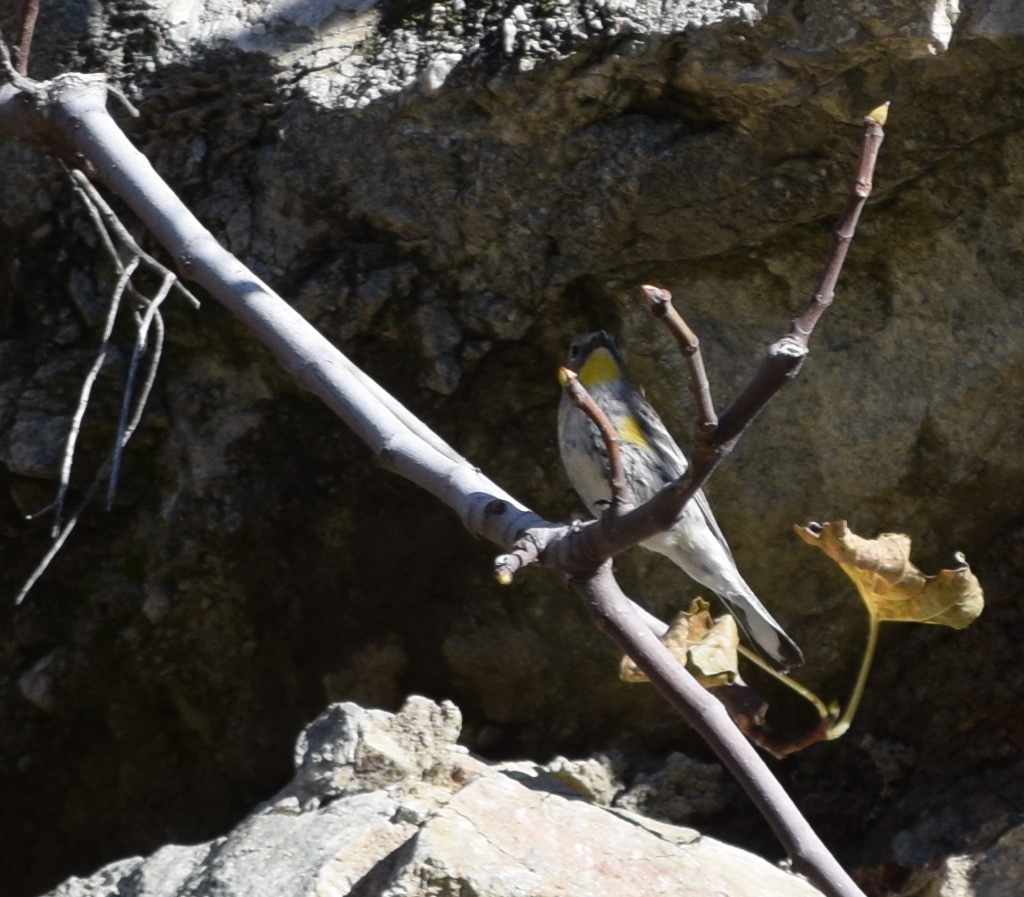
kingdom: Animalia
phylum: Chordata
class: Aves
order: Passeriformes
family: Parulidae
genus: Setophaga
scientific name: Setophaga coronata
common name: Myrtle warbler
